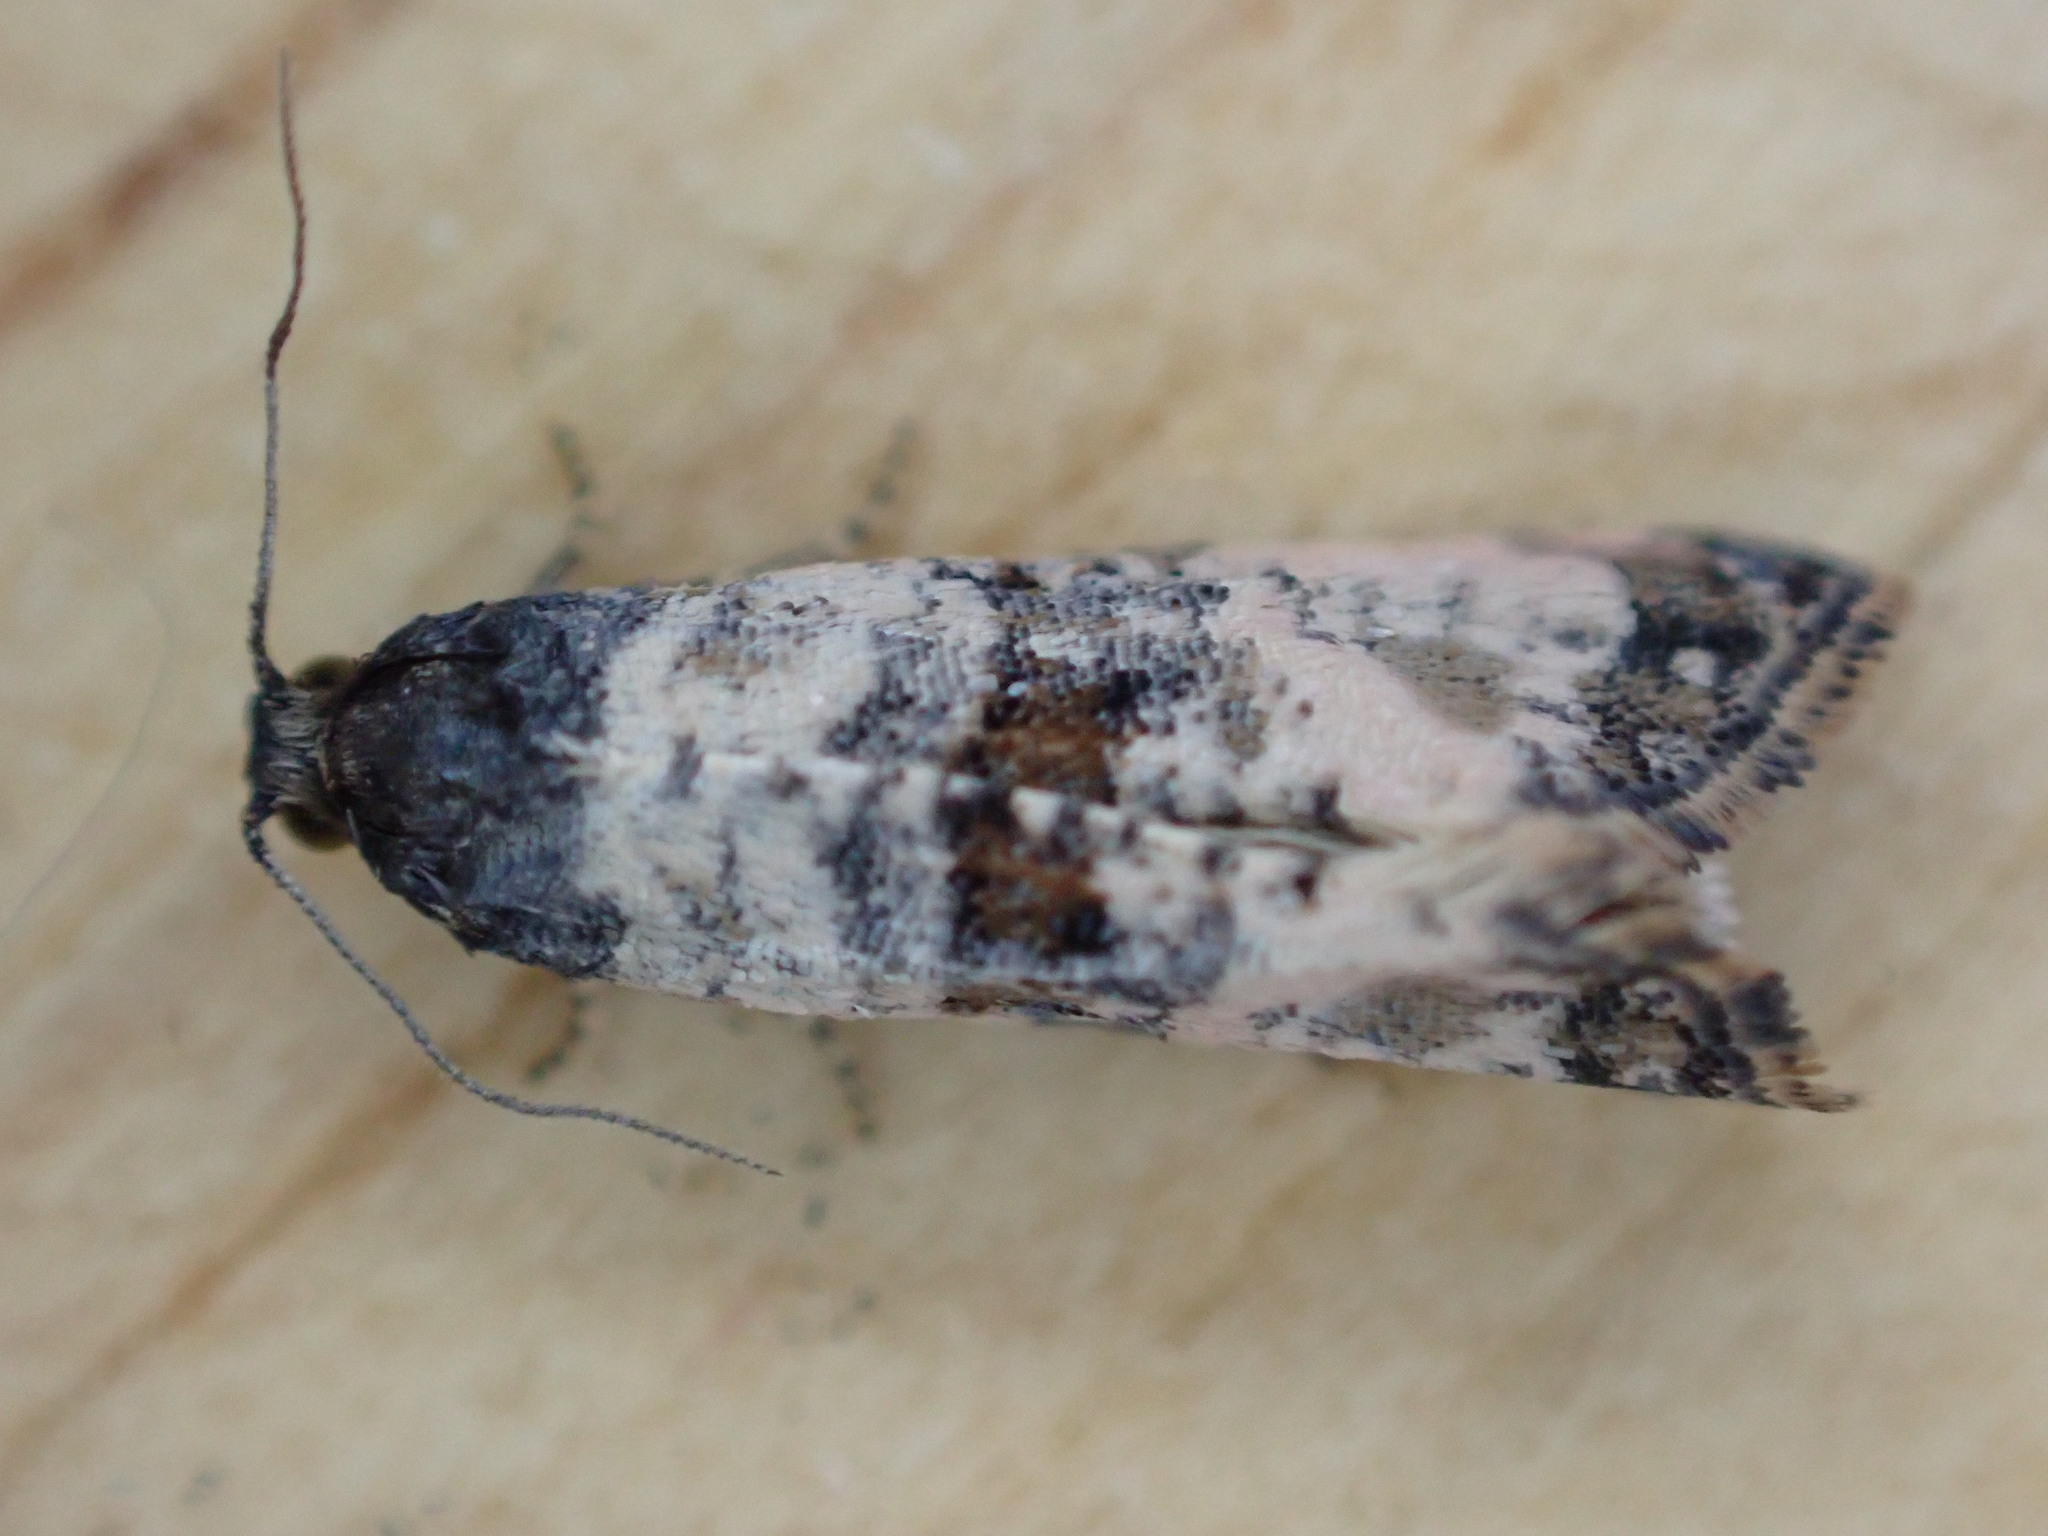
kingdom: Animalia
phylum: Arthropoda
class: Insecta
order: Lepidoptera
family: Tortricidae
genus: Cochylis
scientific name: Cochylis atricapitana
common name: Tortricid moth
